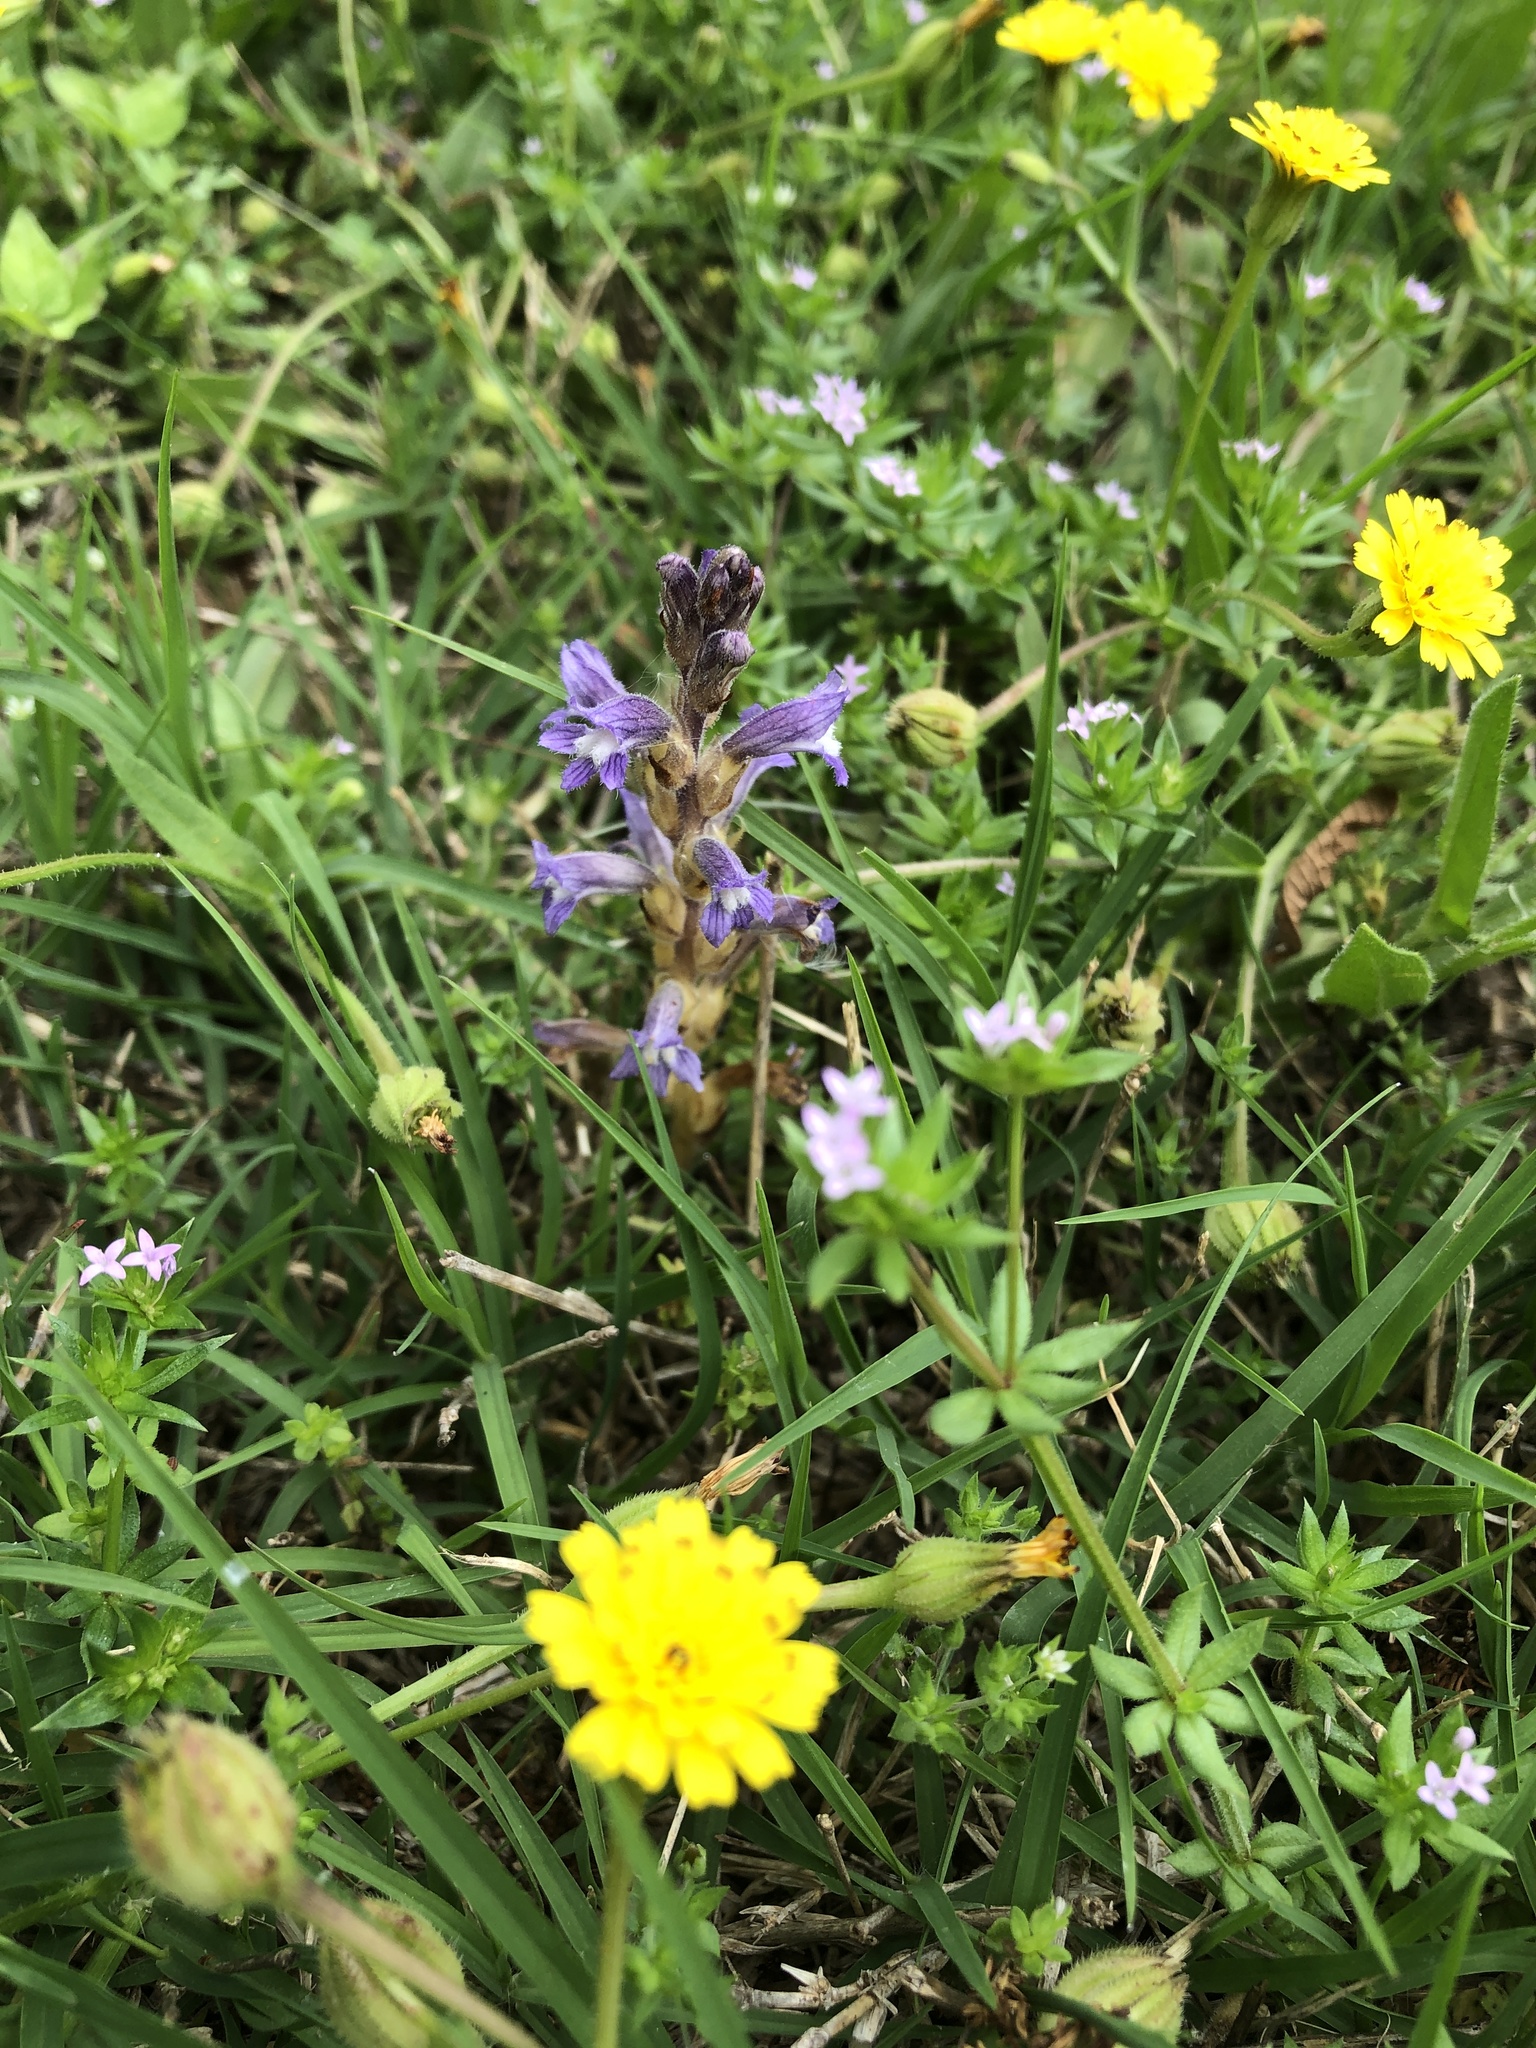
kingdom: Plantae
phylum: Tracheophyta
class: Magnoliopsida
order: Lamiales
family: Orobanchaceae
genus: Phelipanche
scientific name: Phelipanche mutelii
